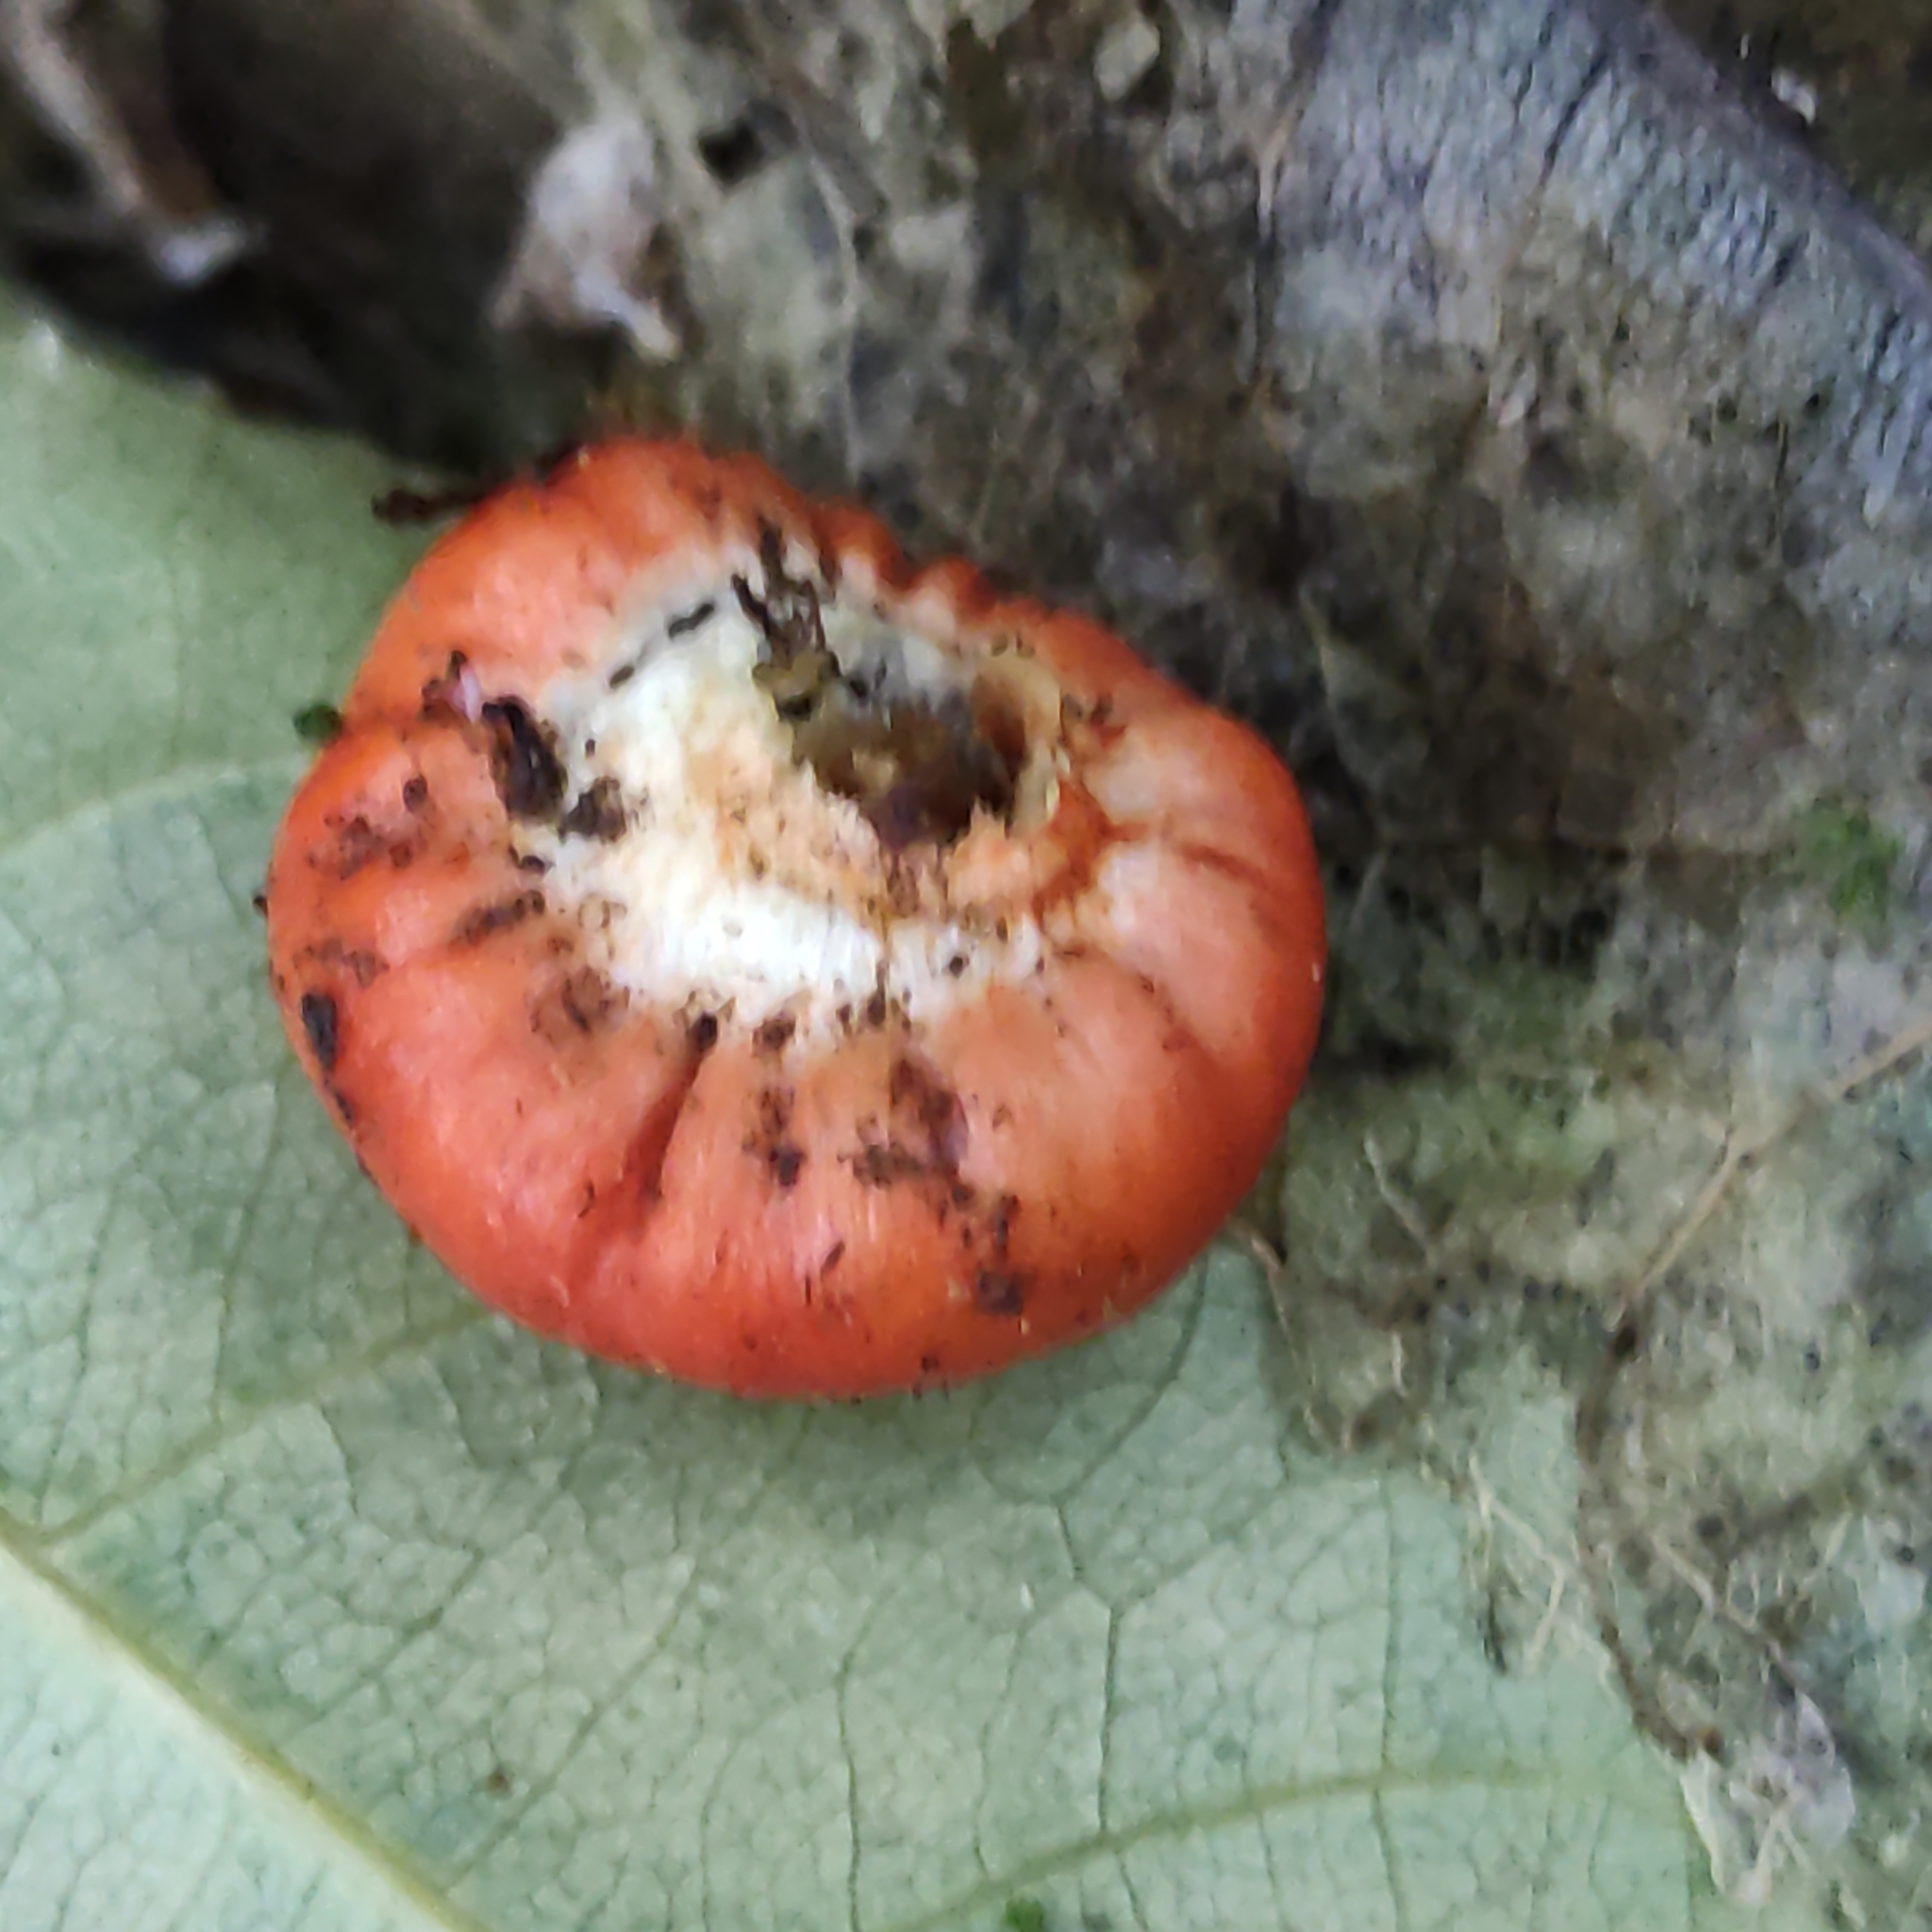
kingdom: Fungi
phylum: Basidiomycota
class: Agaricomycetes
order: Agaricales
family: Strophariaceae
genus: Leratiomyces
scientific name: Leratiomyces erythrocephalus
